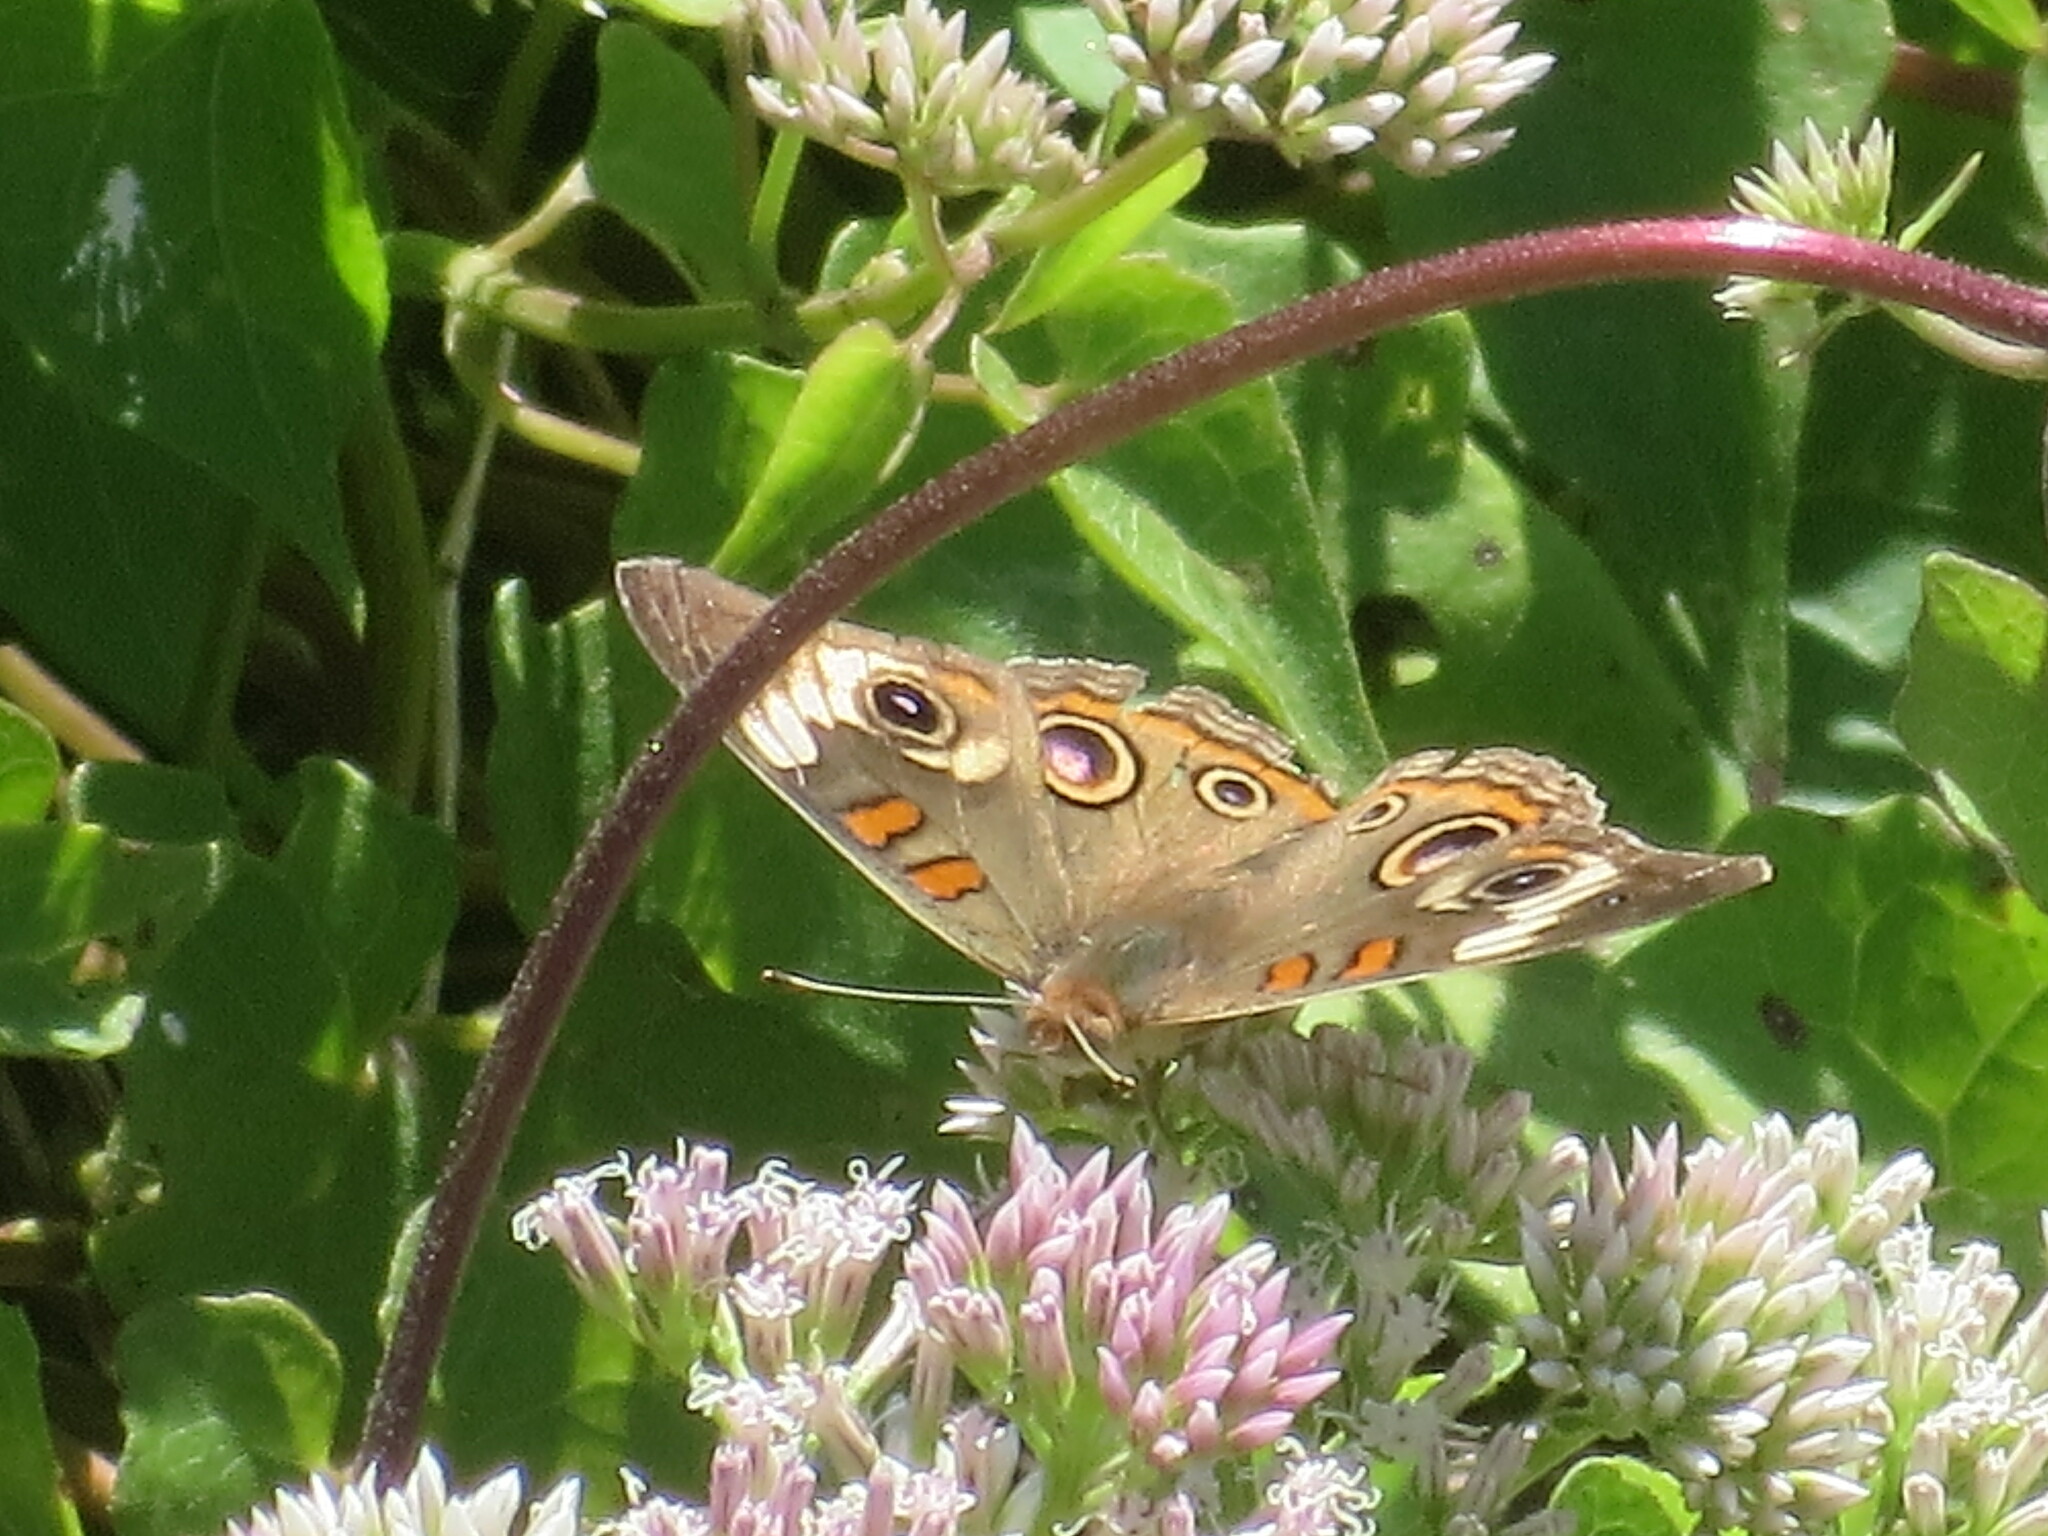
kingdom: Plantae
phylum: Tracheophyta
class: Magnoliopsida
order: Asterales
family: Asteraceae
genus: Mikania
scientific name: Mikania scandens
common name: Climbing hempvine
